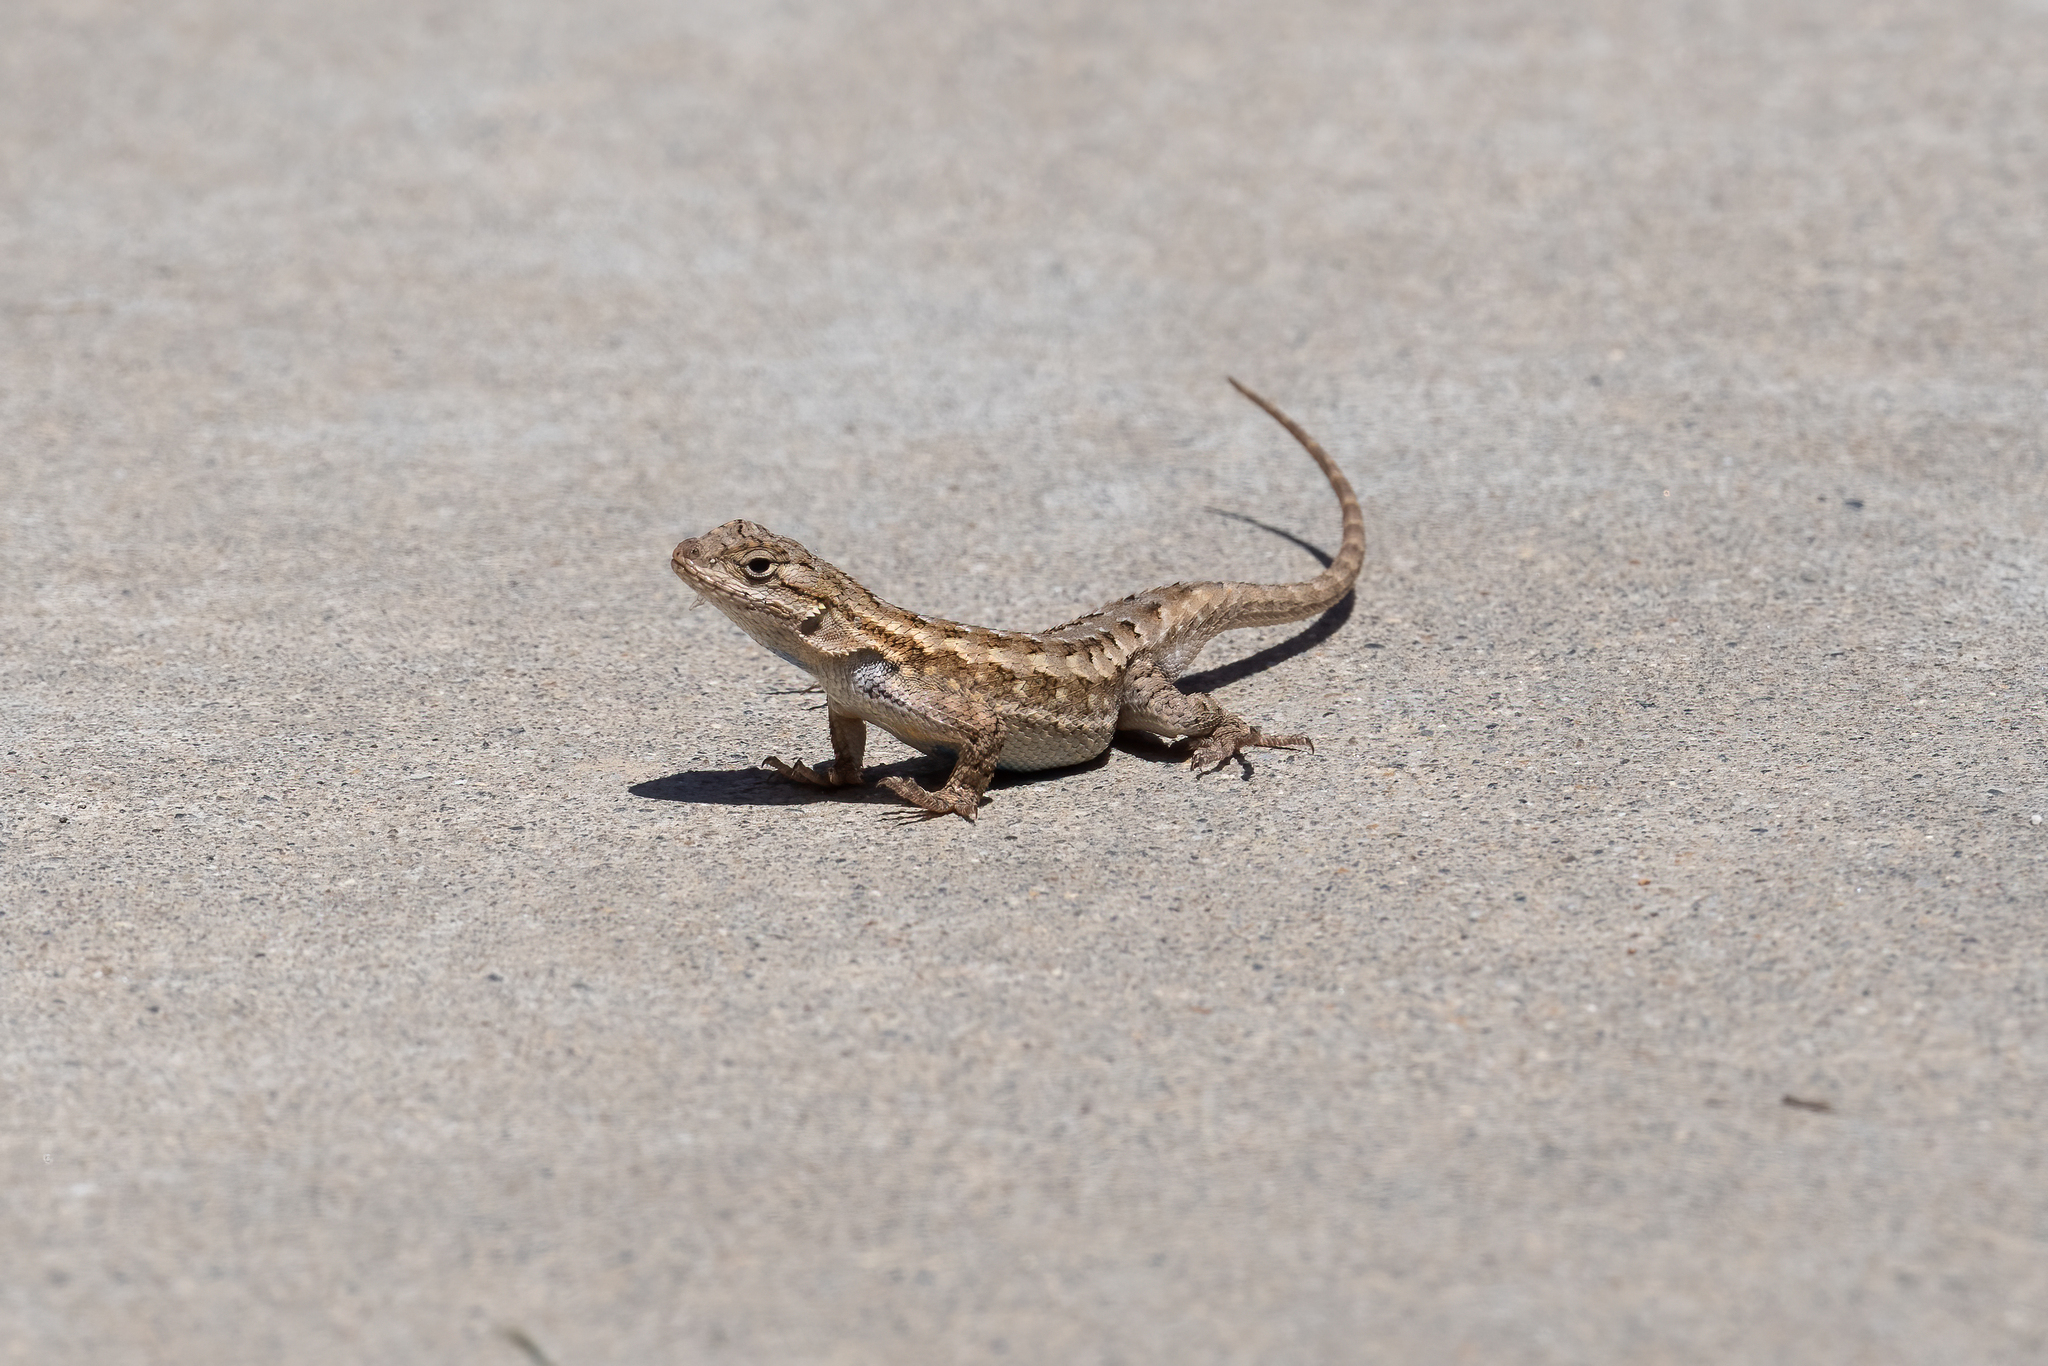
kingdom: Animalia
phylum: Chordata
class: Squamata
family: Phrynosomatidae
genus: Sceloporus
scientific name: Sceloporus occidentalis
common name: Western fence lizard
